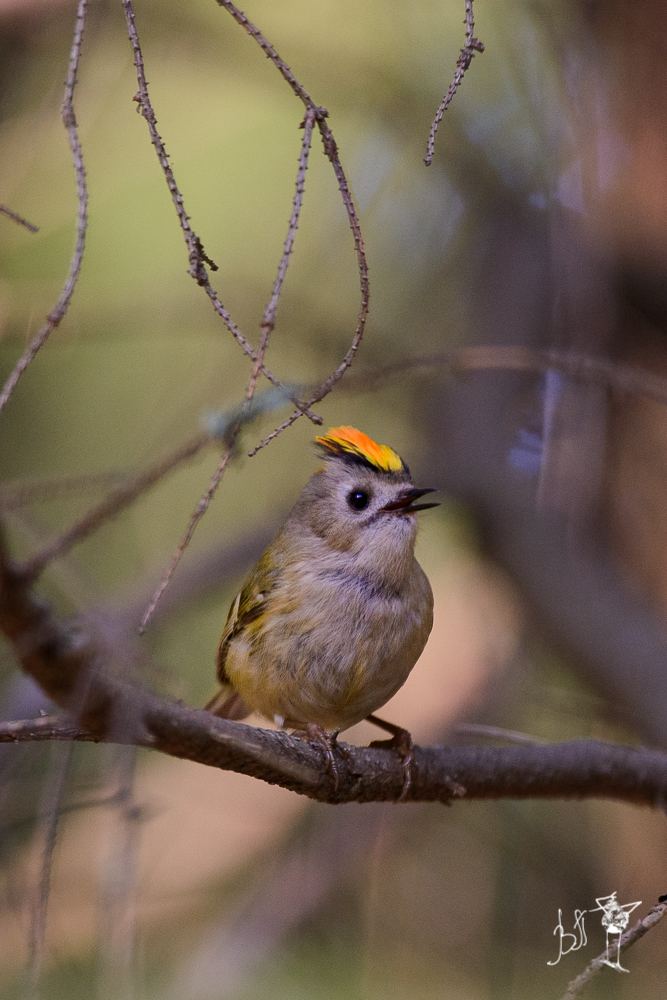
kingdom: Animalia
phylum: Chordata
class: Aves
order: Passeriformes
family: Regulidae
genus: Regulus
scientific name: Regulus regulus
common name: Goldcrest
